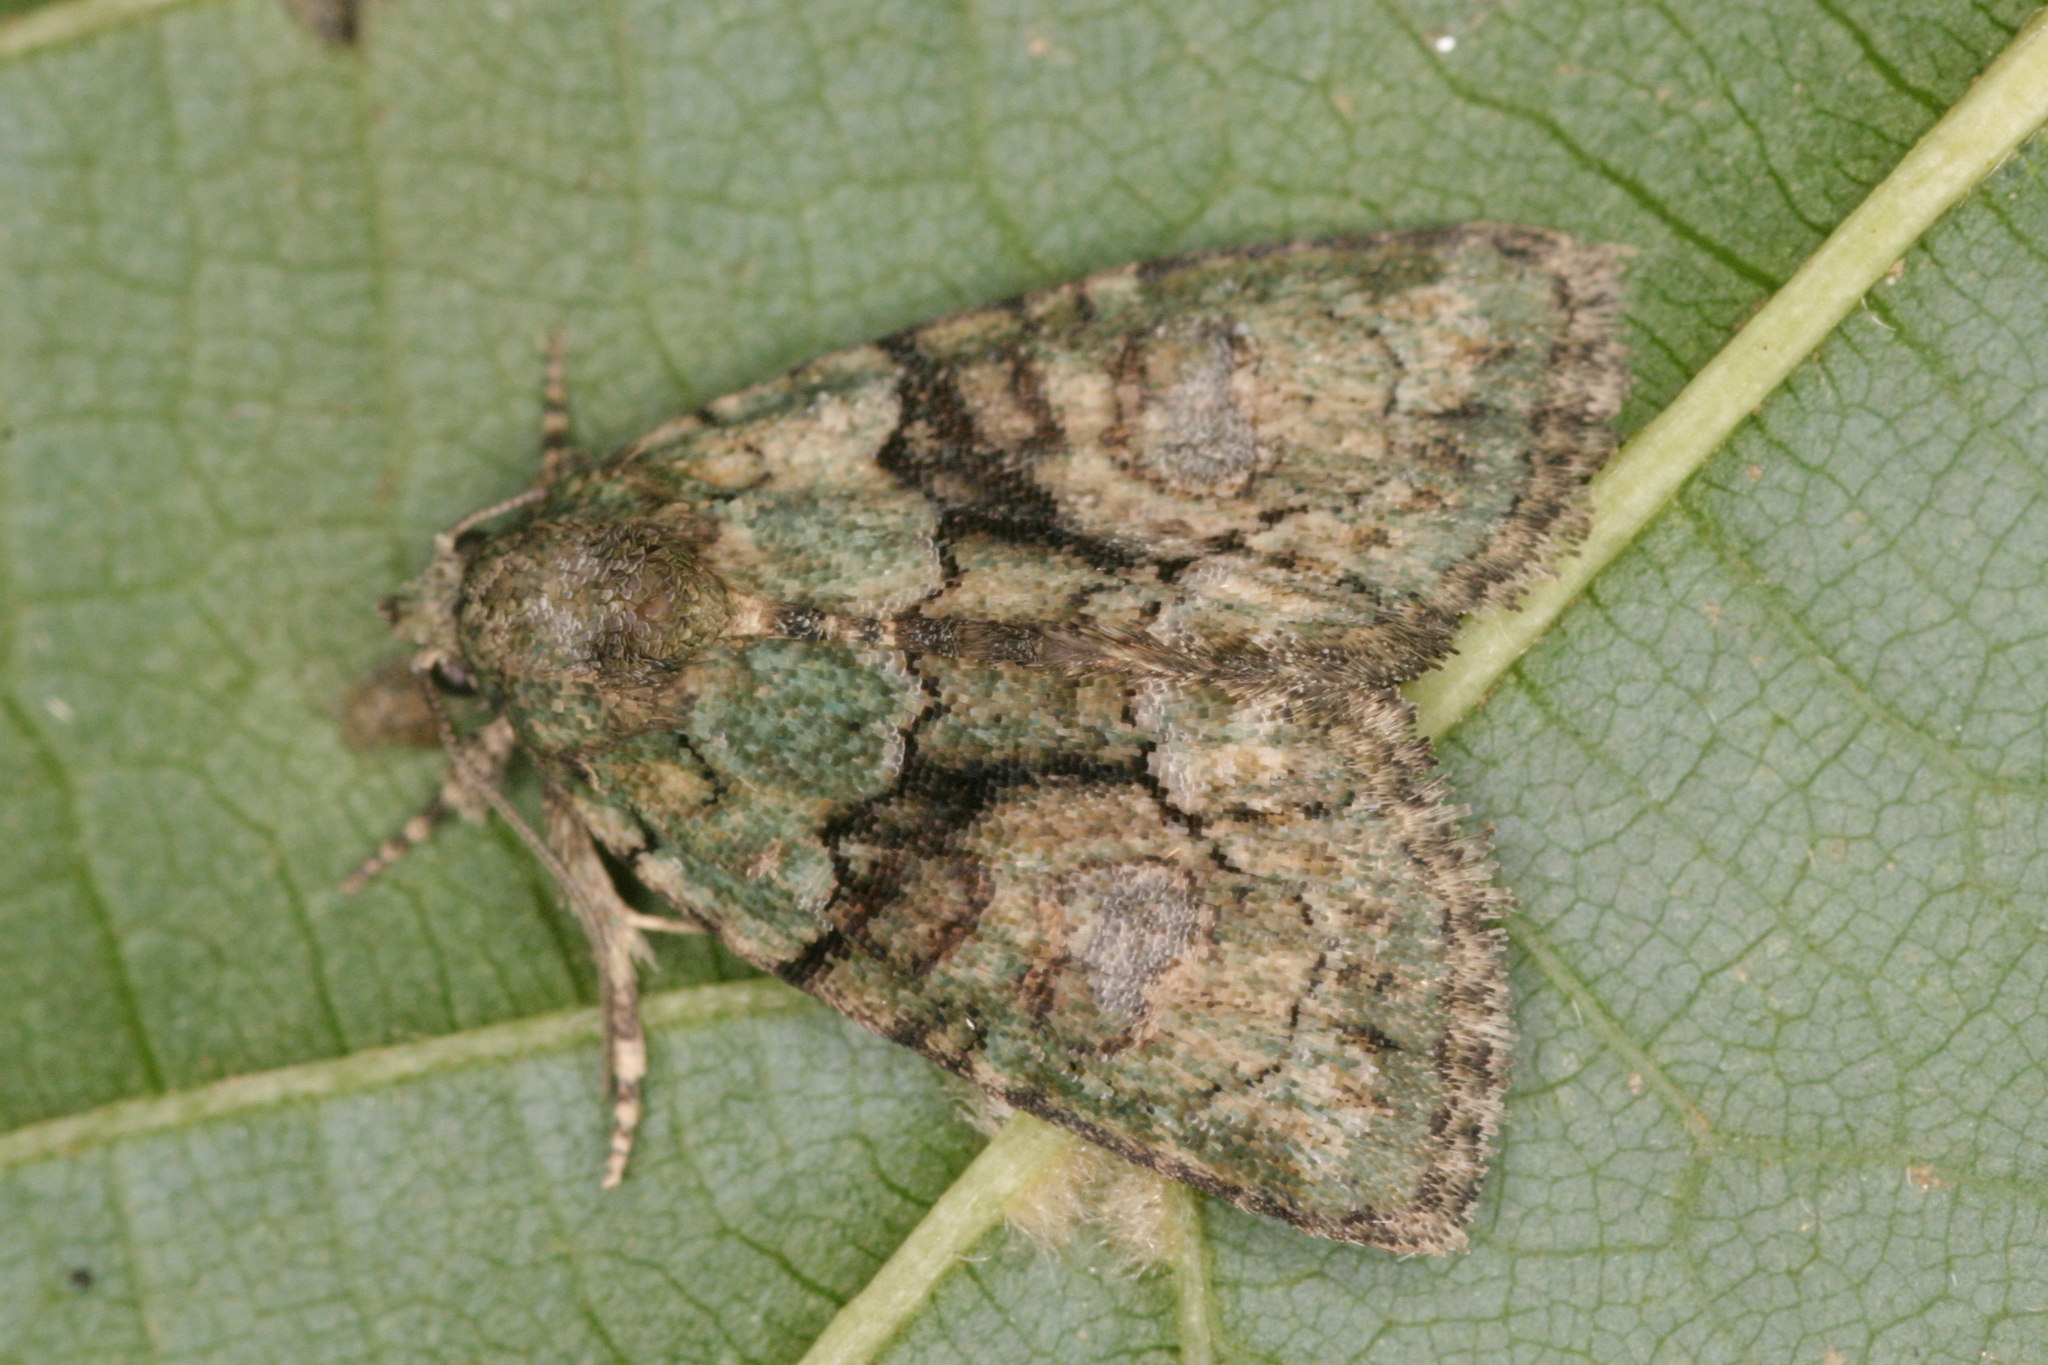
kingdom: Animalia
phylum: Arthropoda
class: Insecta
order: Lepidoptera
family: Noctuidae
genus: Cryphia
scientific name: Cryphia algae
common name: Tree-lichen beauty
